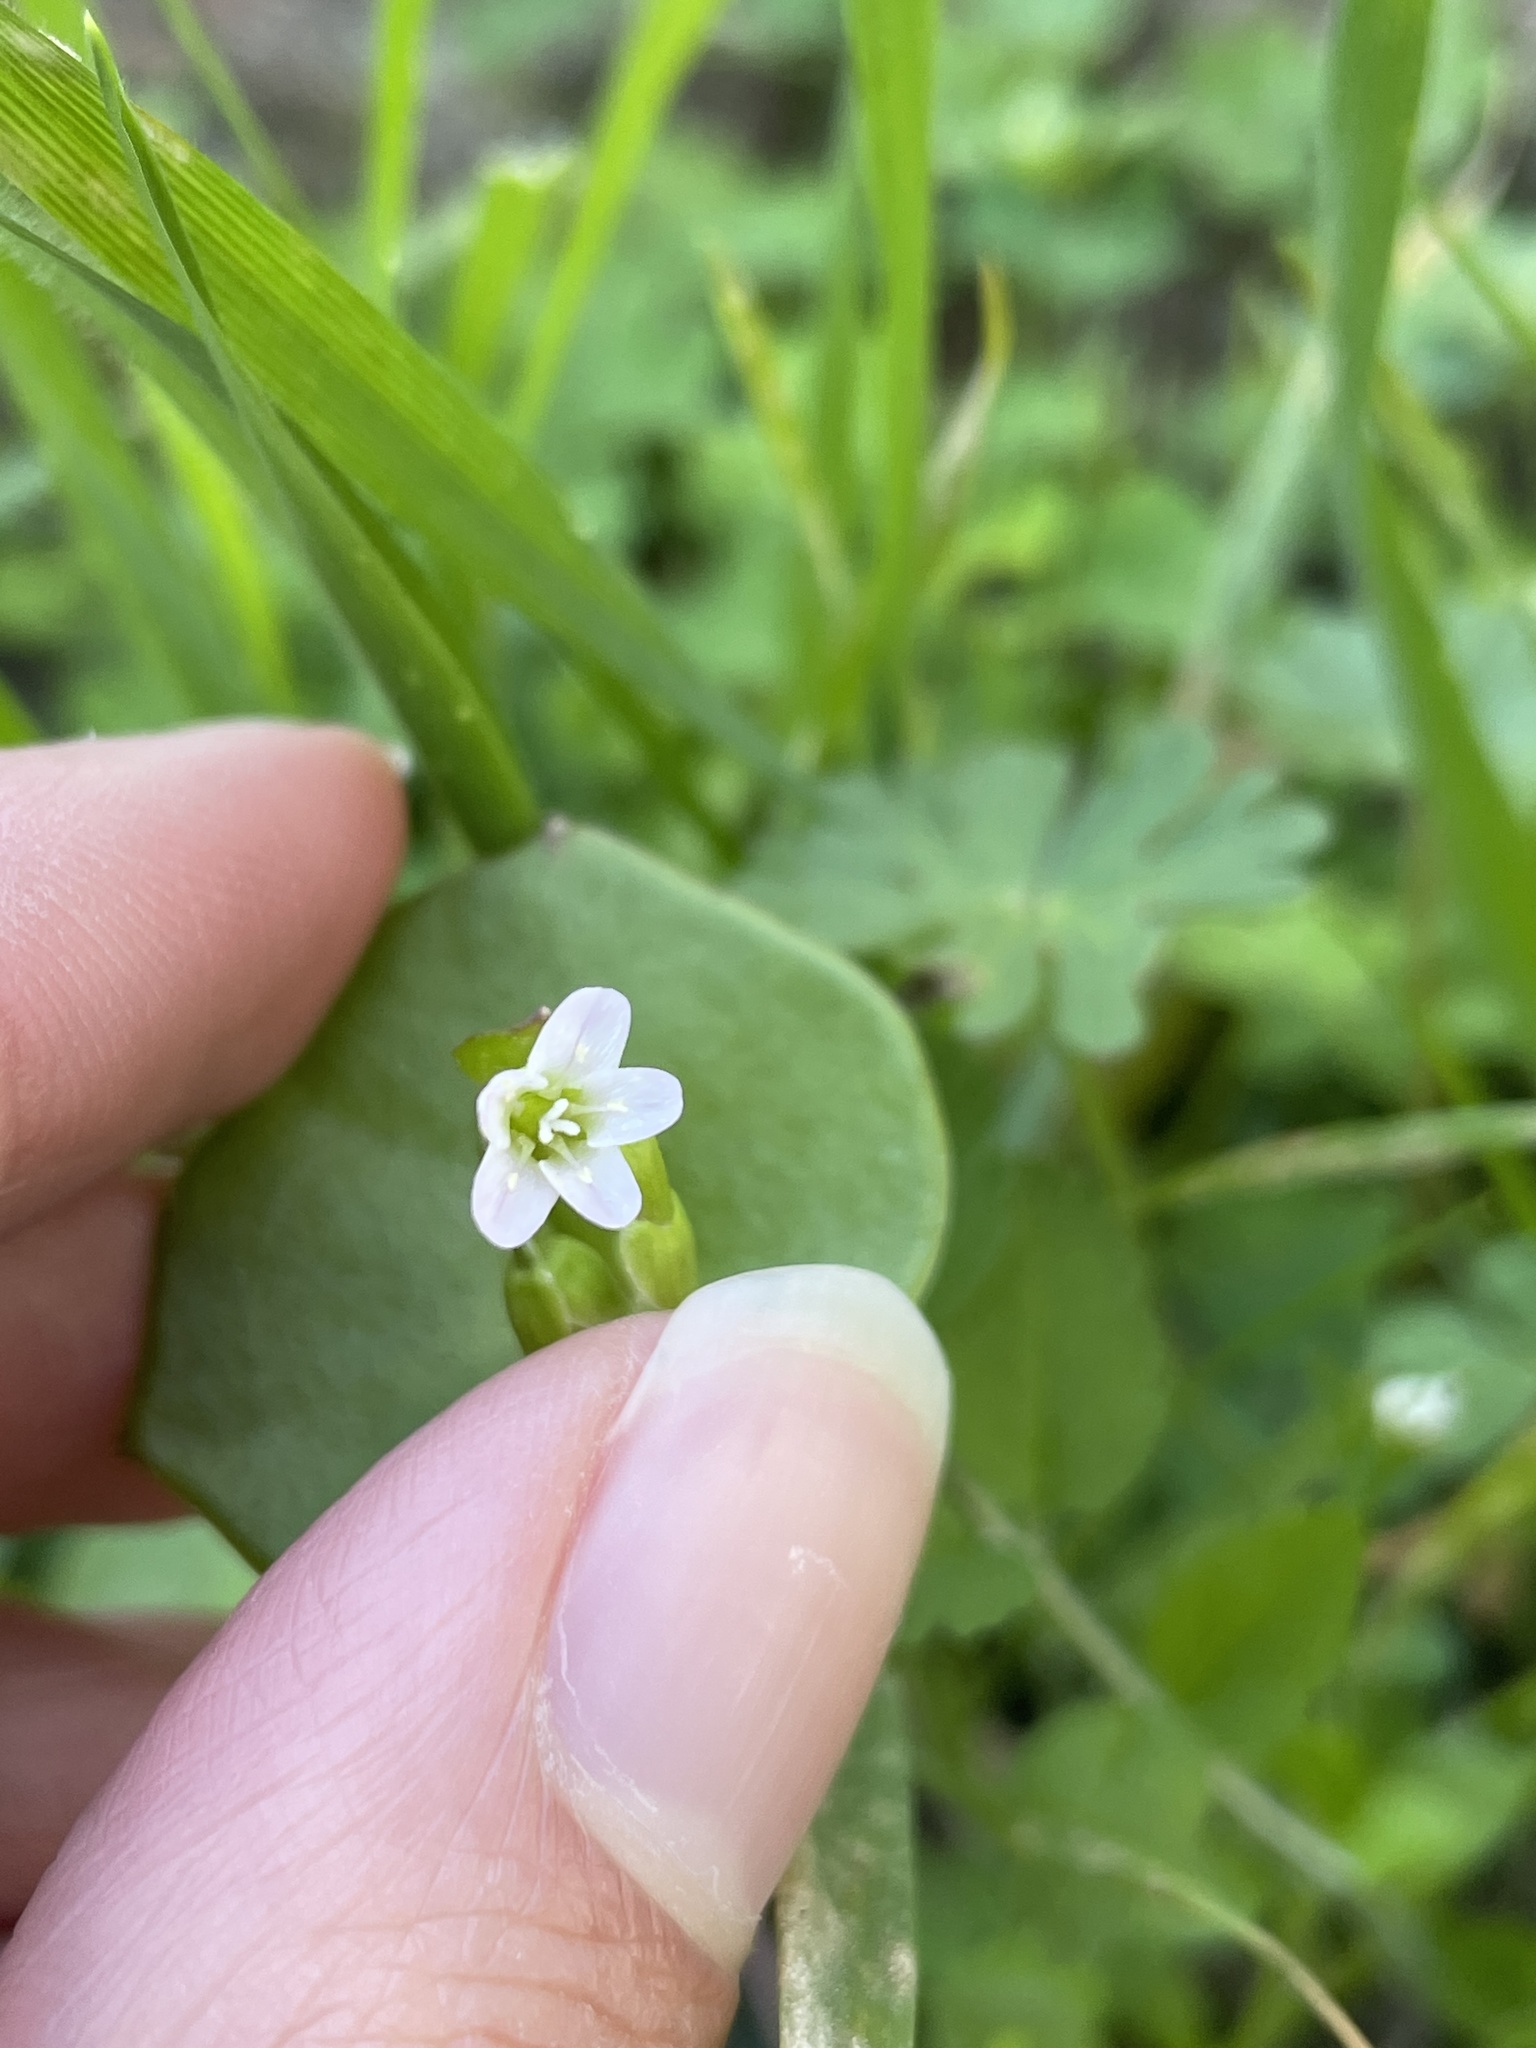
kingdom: Plantae
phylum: Tracheophyta
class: Magnoliopsida
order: Caryophyllales
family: Montiaceae
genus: Claytonia
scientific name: Claytonia perfoliata
